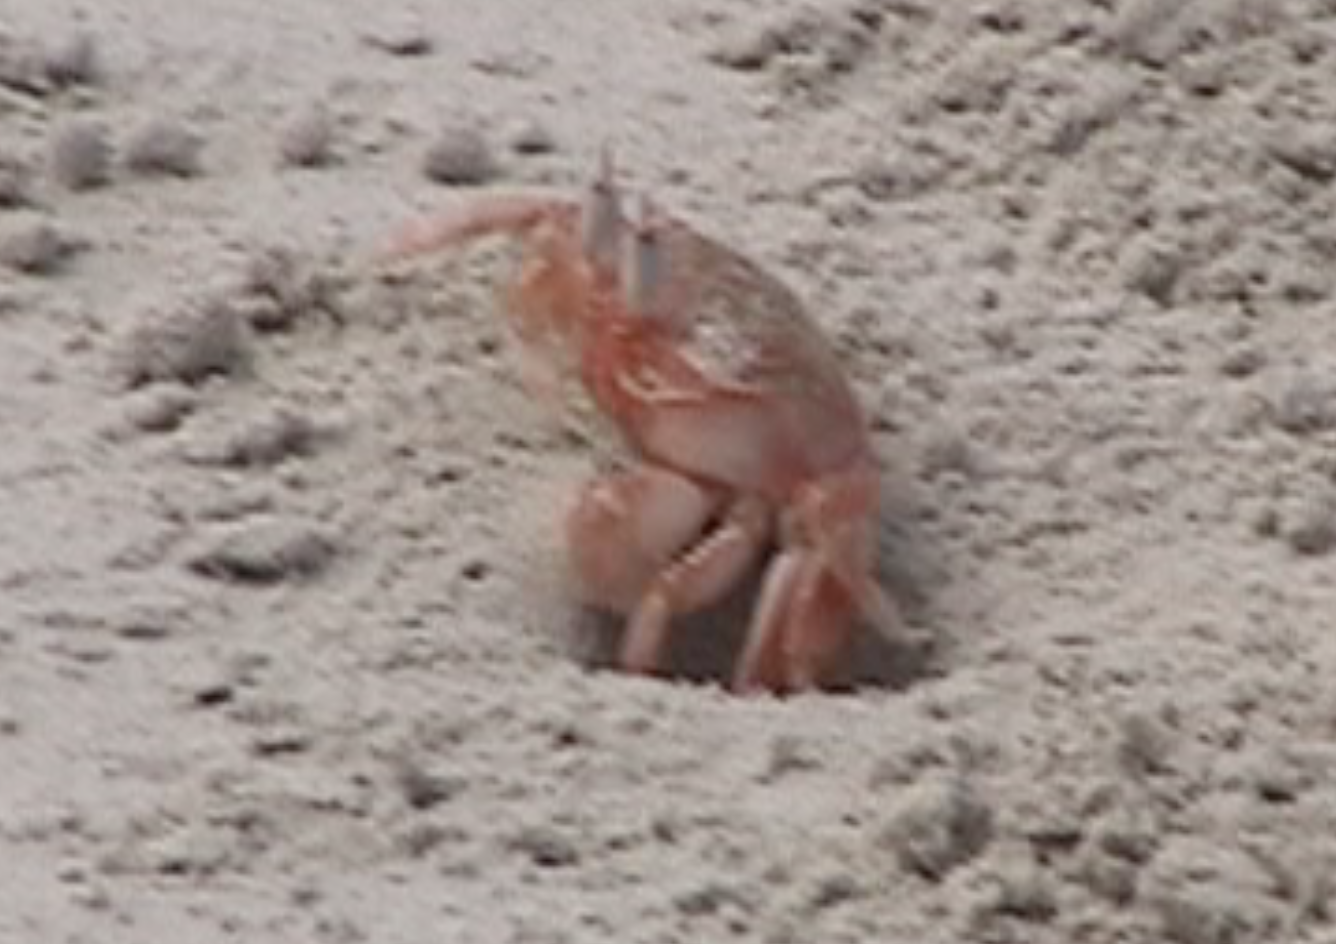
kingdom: Animalia
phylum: Arthropoda
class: Malacostraca
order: Decapoda
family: Ocypodidae
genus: Ocypode
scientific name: Ocypode gaudichaudii
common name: Pacific ghost crab
